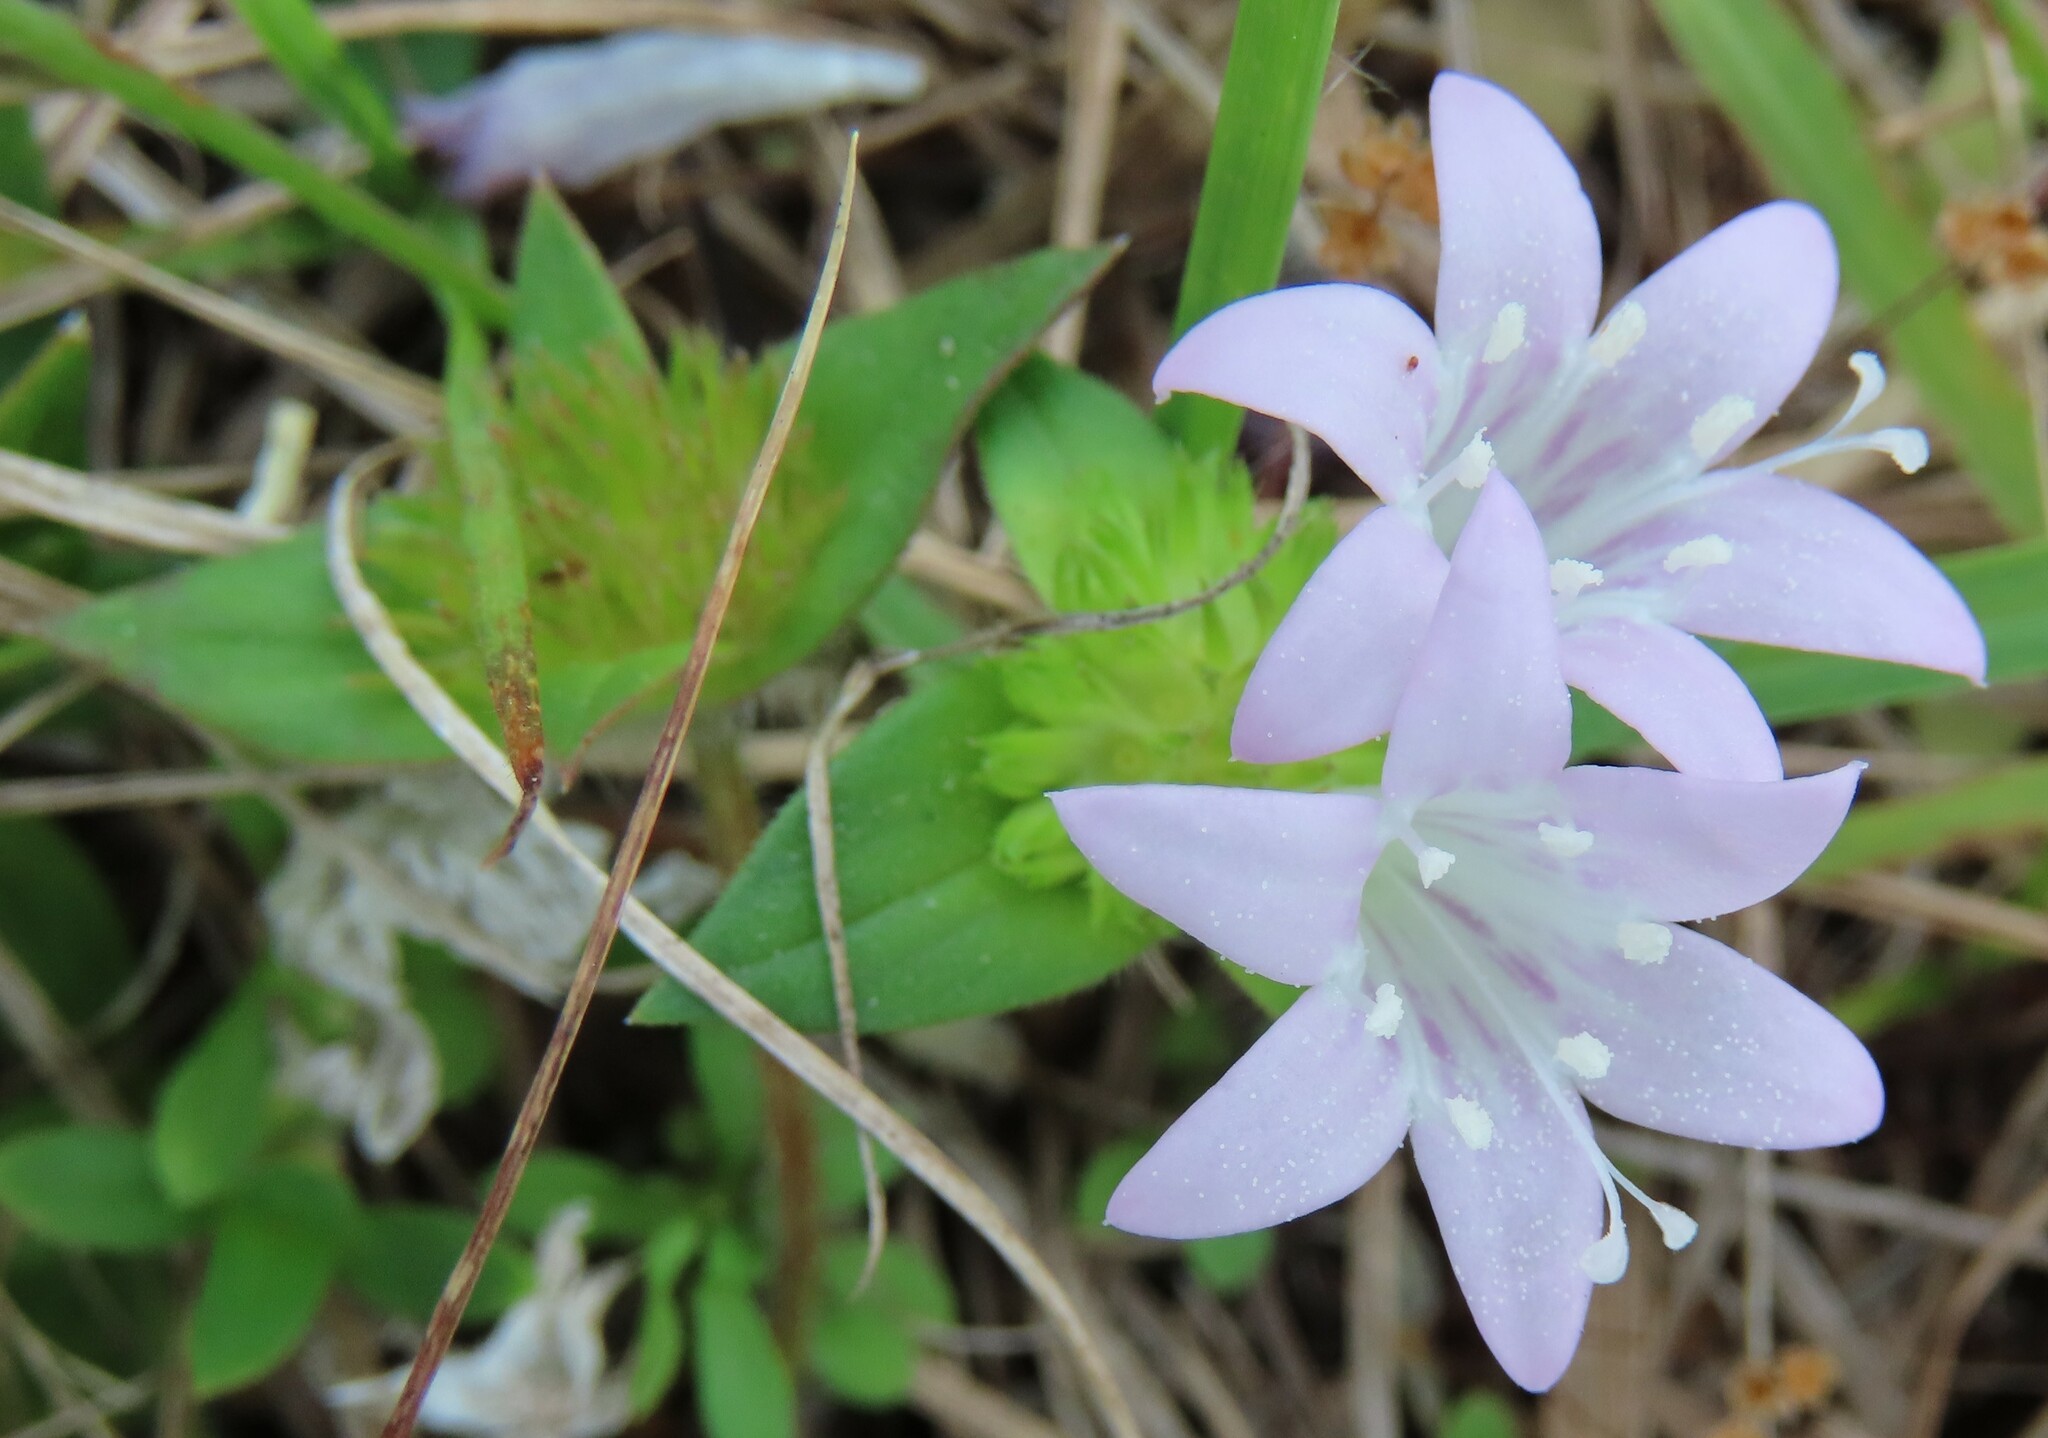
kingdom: Plantae
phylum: Tracheophyta
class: Magnoliopsida
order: Gentianales
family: Rubiaceae
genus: Richardia
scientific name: Richardia grandiflora
